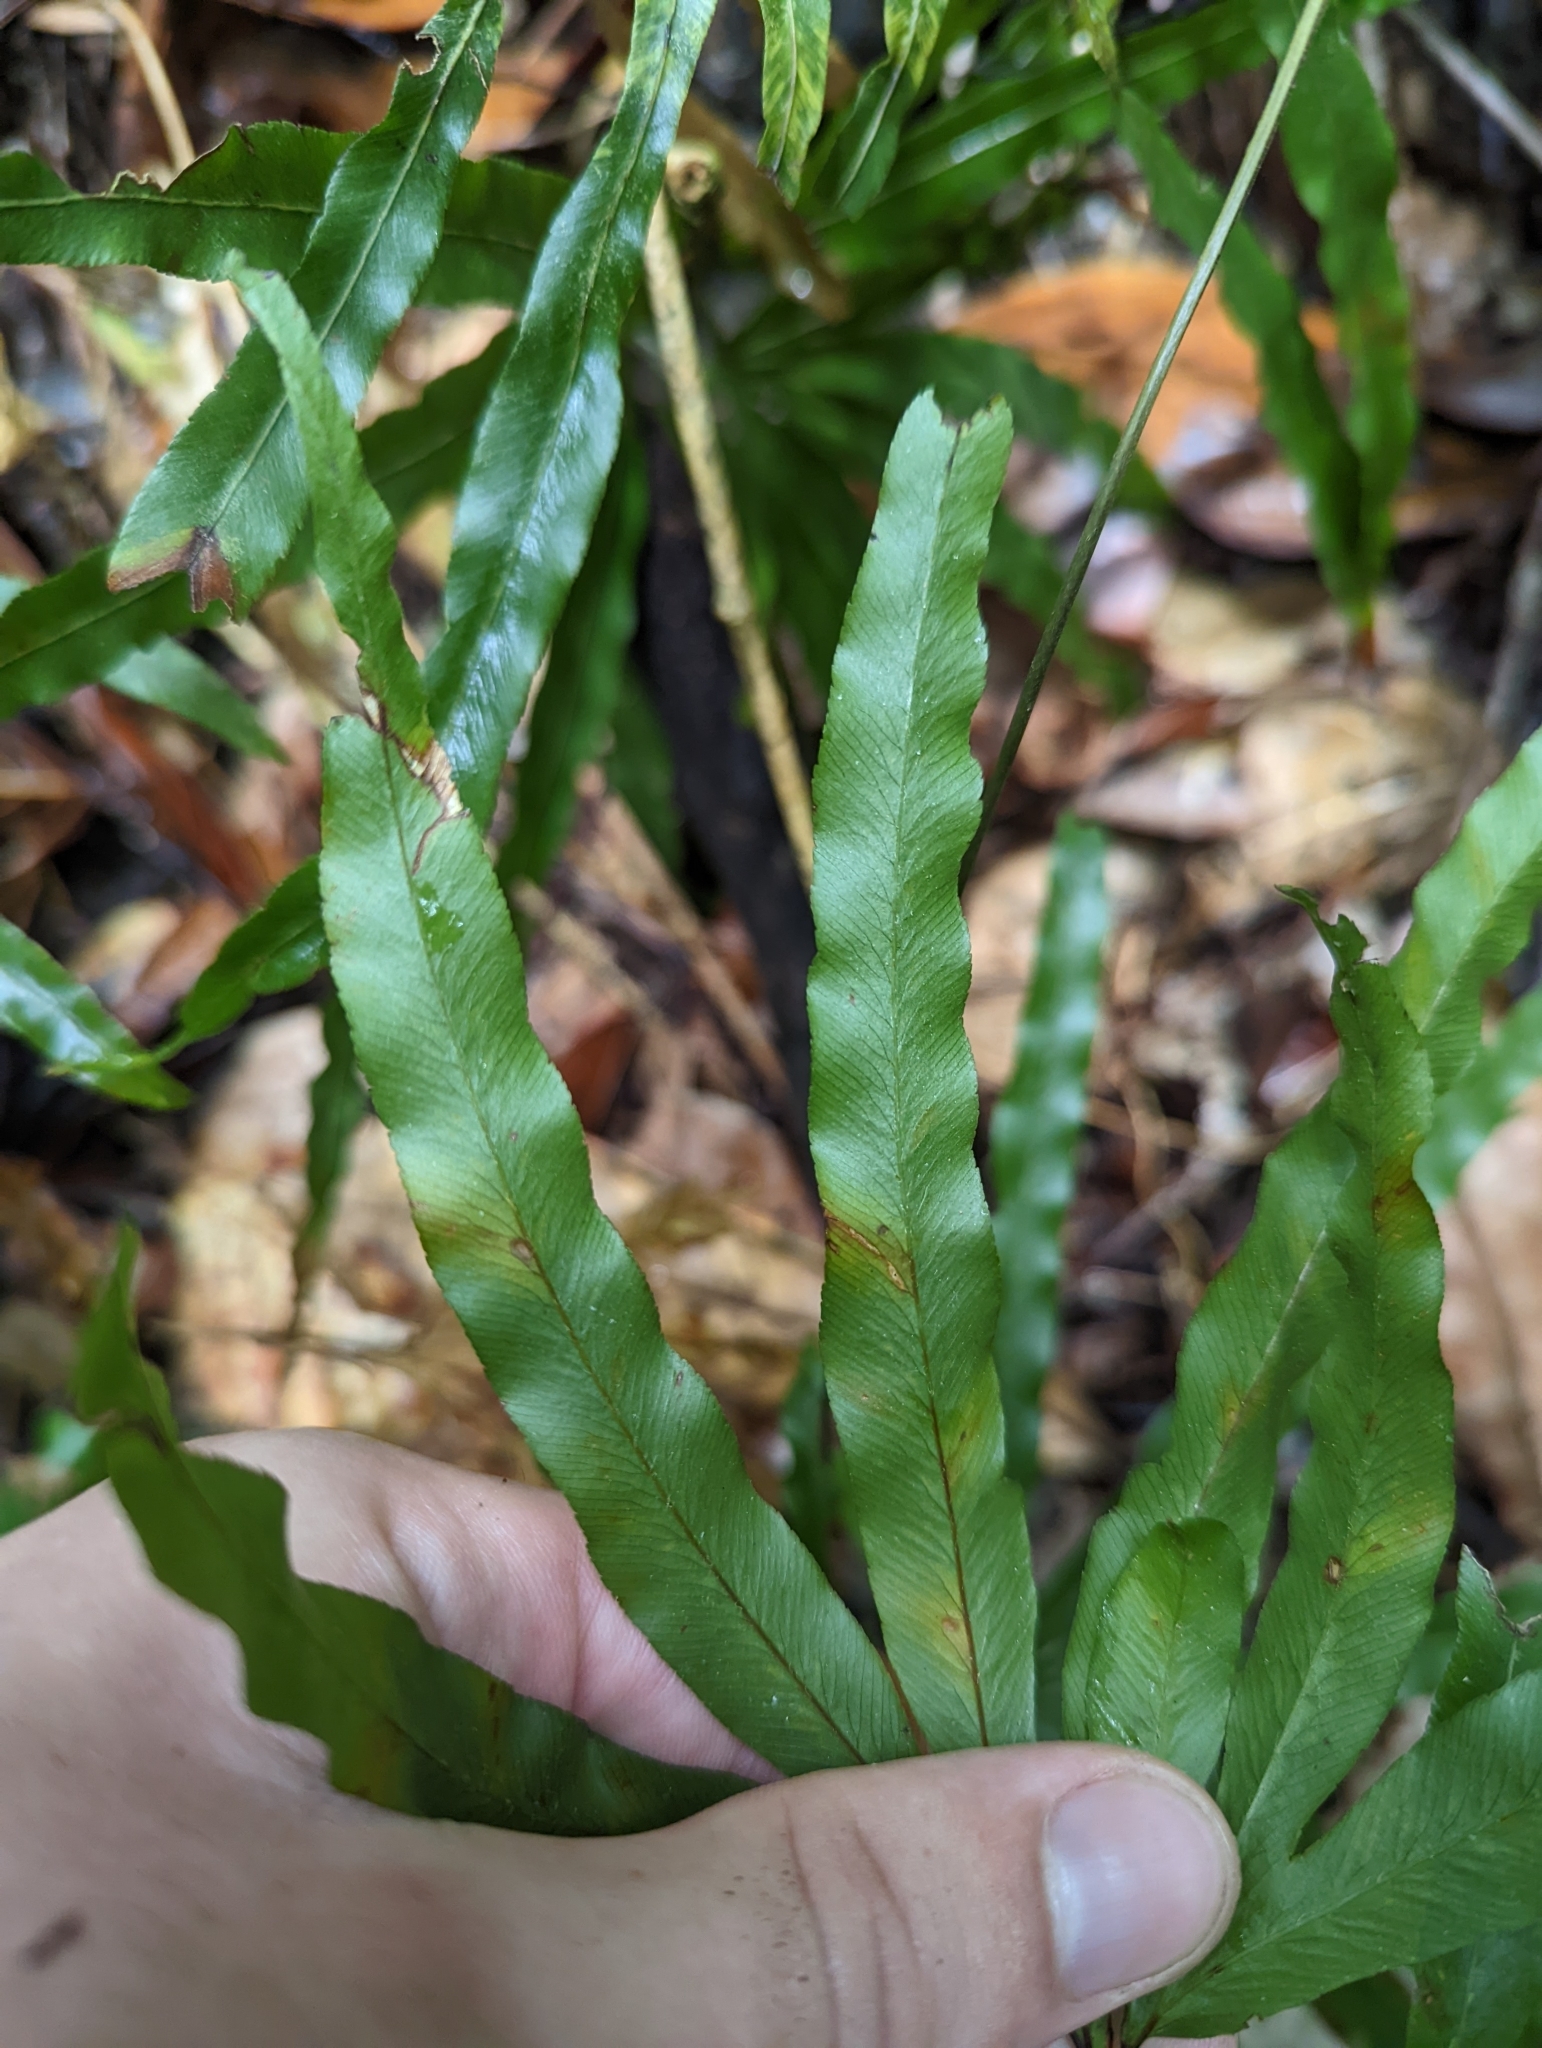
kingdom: Plantae
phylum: Tracheophyta
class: Polypodiopsida
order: Schizaeales
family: Lygodiaceae
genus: Lygodium
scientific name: Lygodium longifolium
